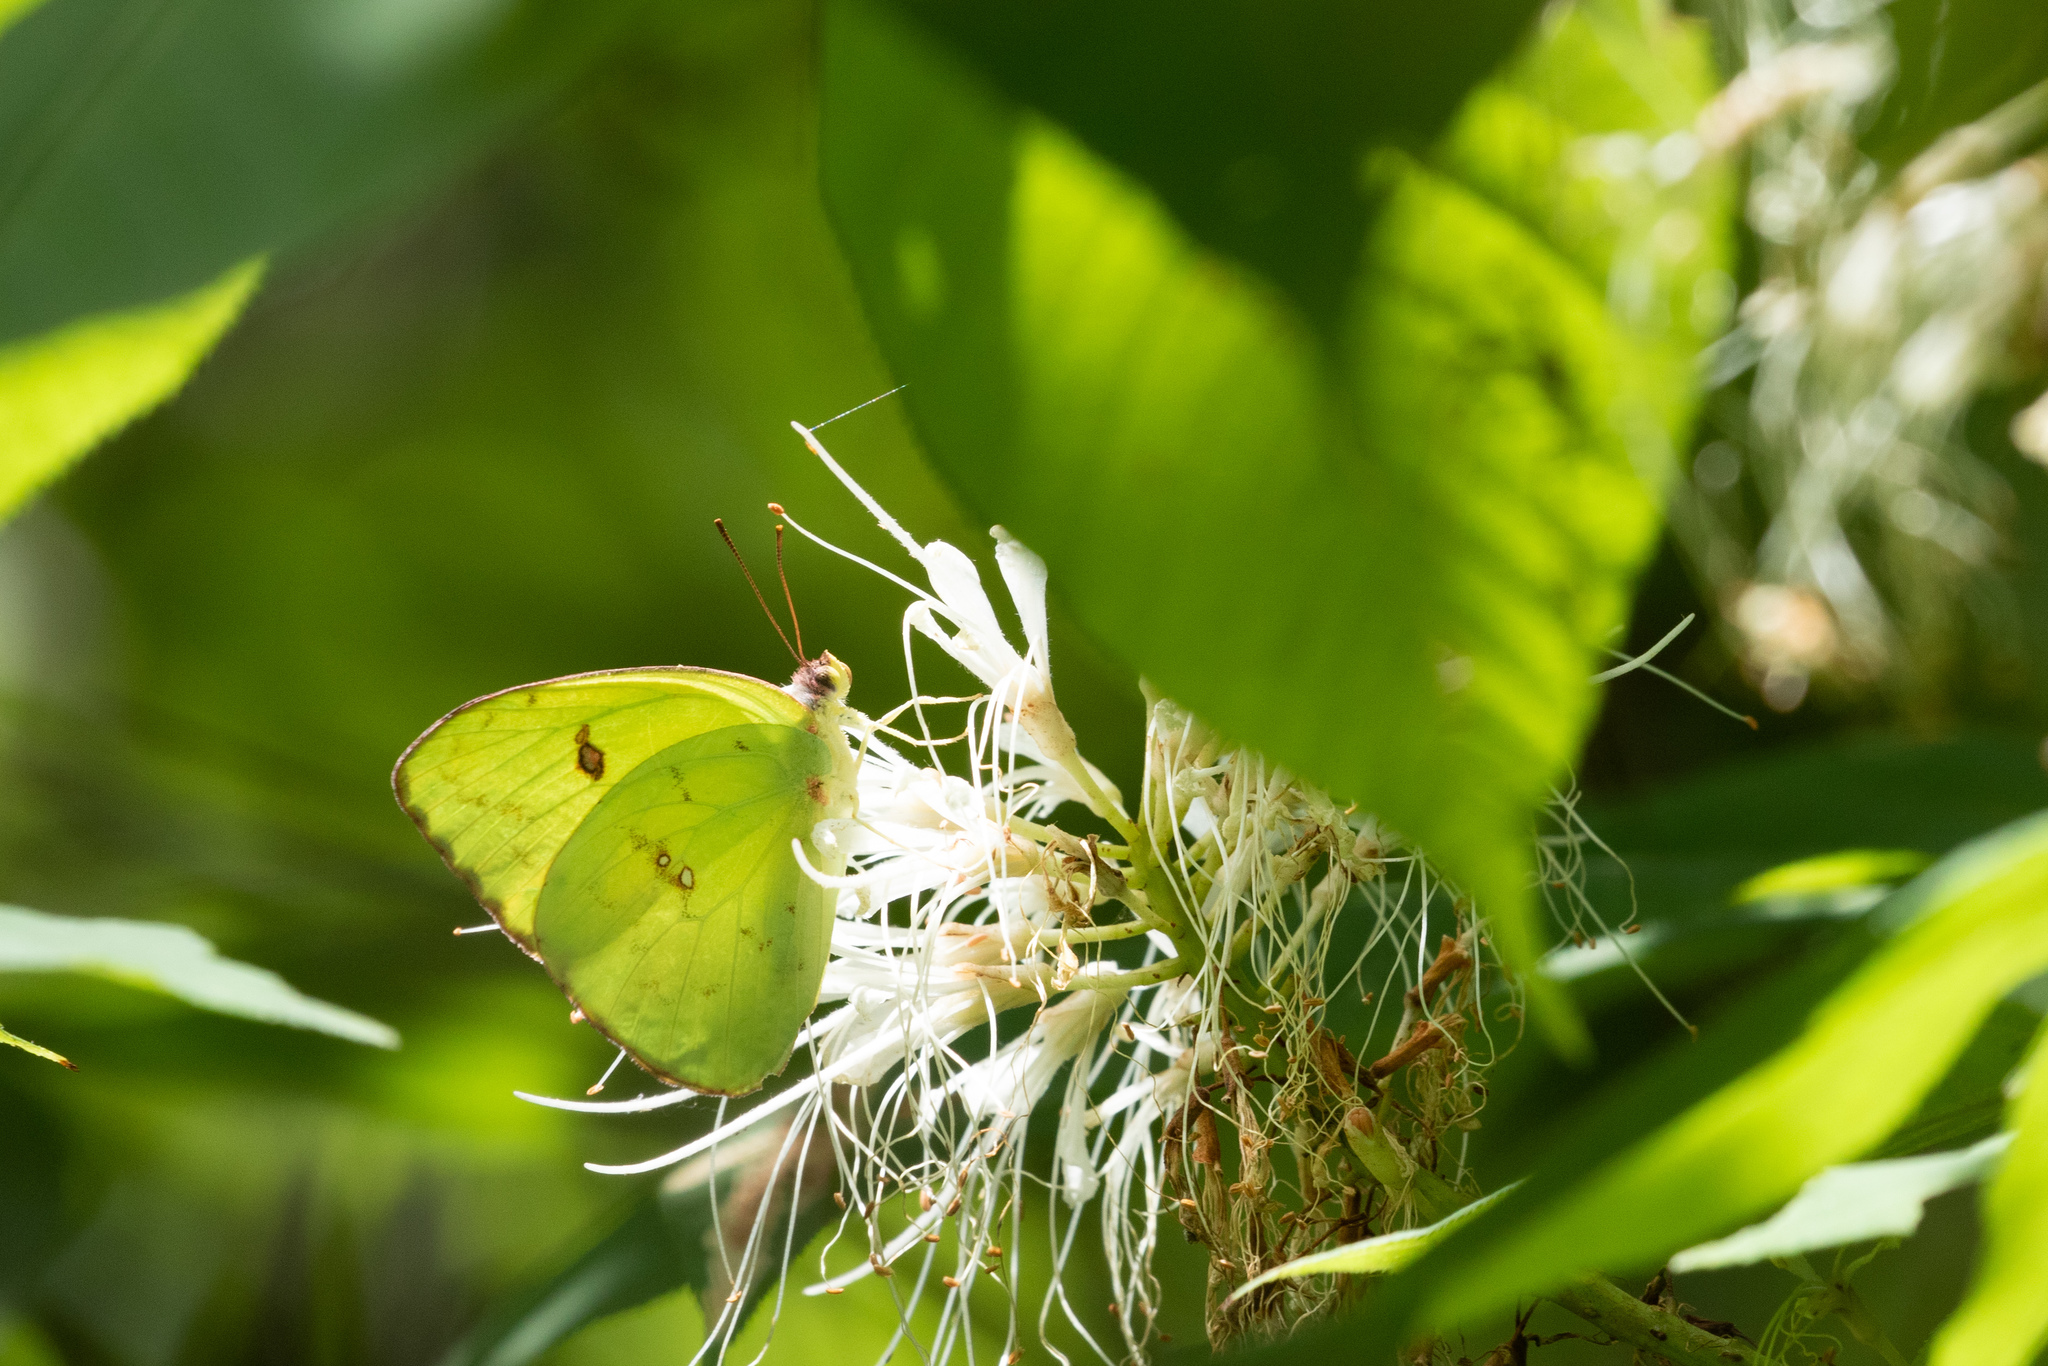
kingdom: Animalia
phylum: Arthropoda
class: Insecta
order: Lepidoptera
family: Pieridae
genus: Phoebis
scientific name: Phoebis sennae
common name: Cloudless sulphur
